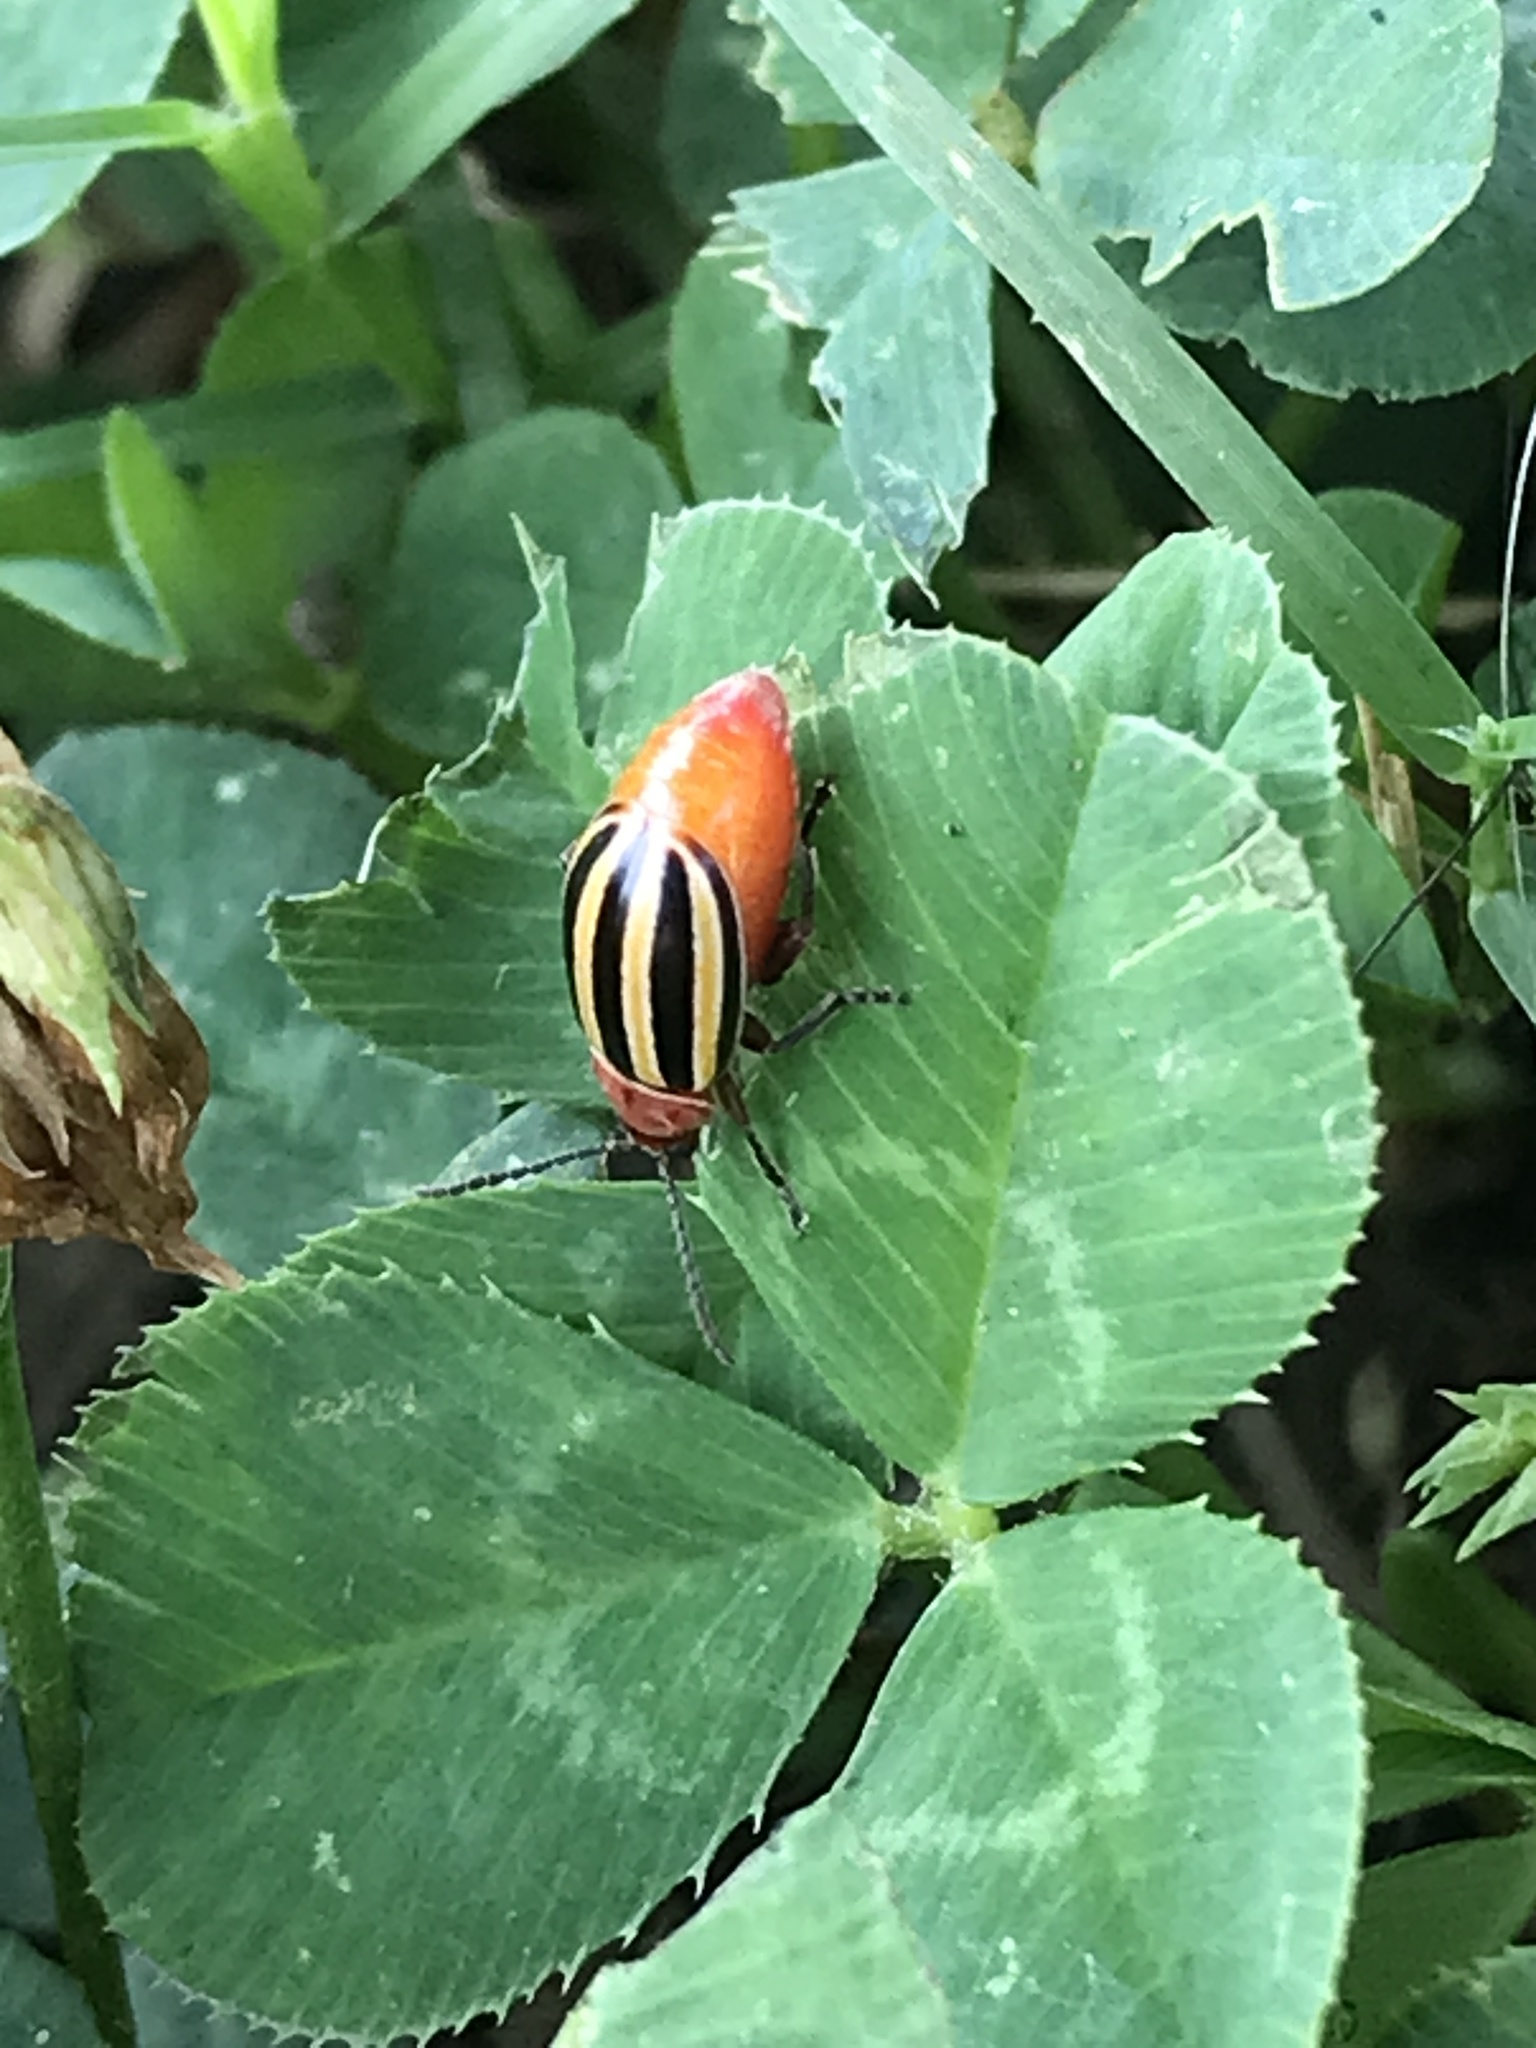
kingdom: Animalia
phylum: Arthropoda
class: Insecta
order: Coleoptera
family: Chrysomelidae
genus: Disonycha
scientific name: Disonycha admirabila
